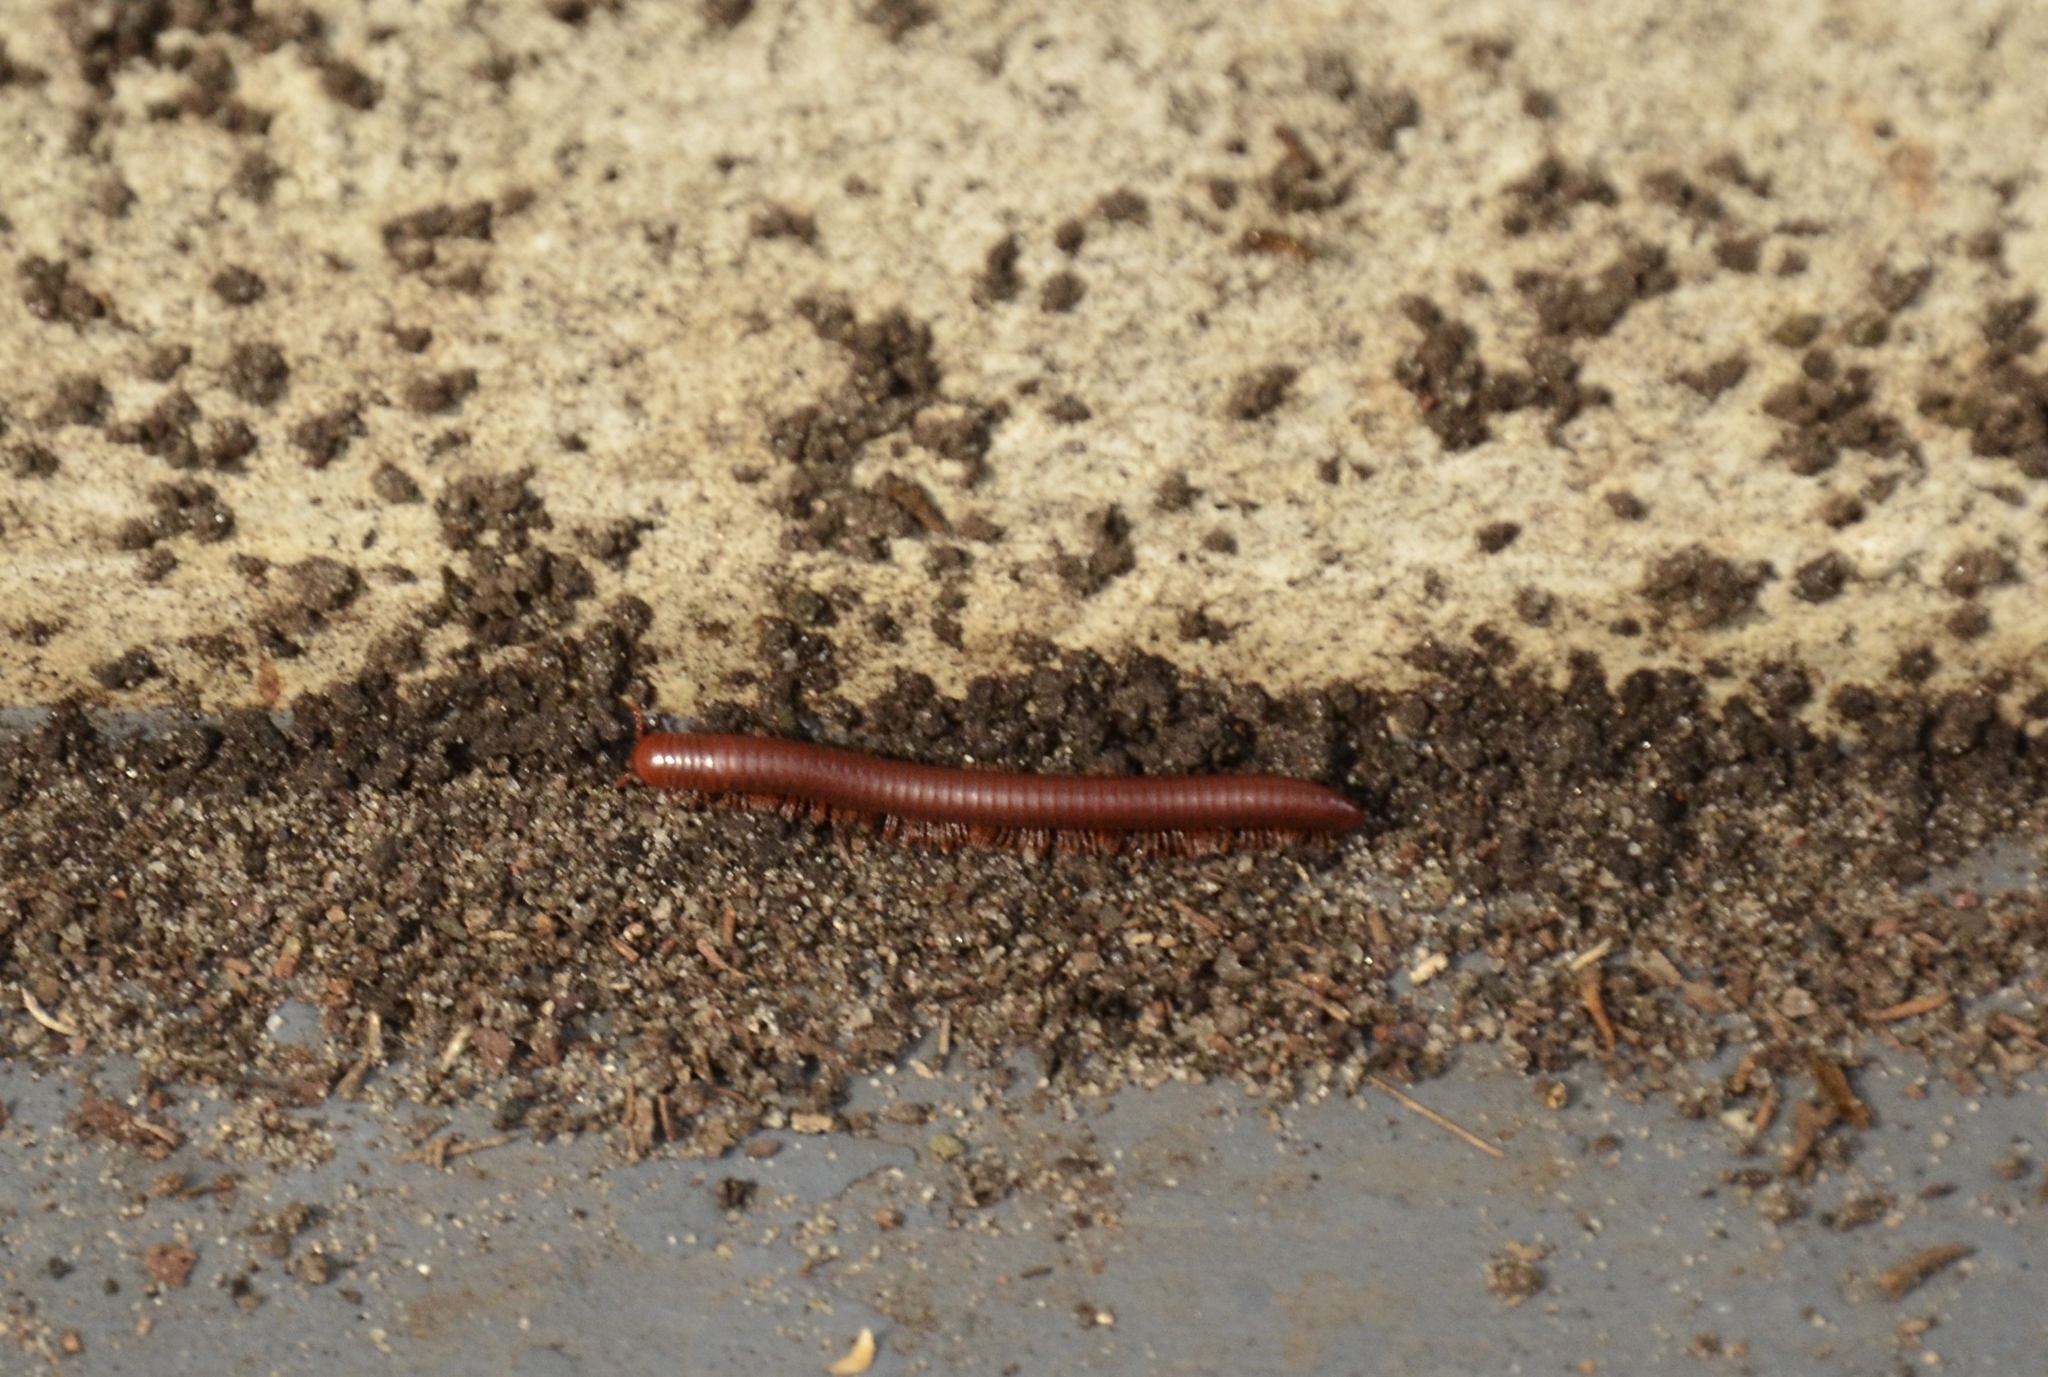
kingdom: Animalia
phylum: Arthropoda
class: Diplopoda
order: Spirobolida
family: Pachybolidae
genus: Trigoniulus
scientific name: Trigoniulus corallinus
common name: Millipede
